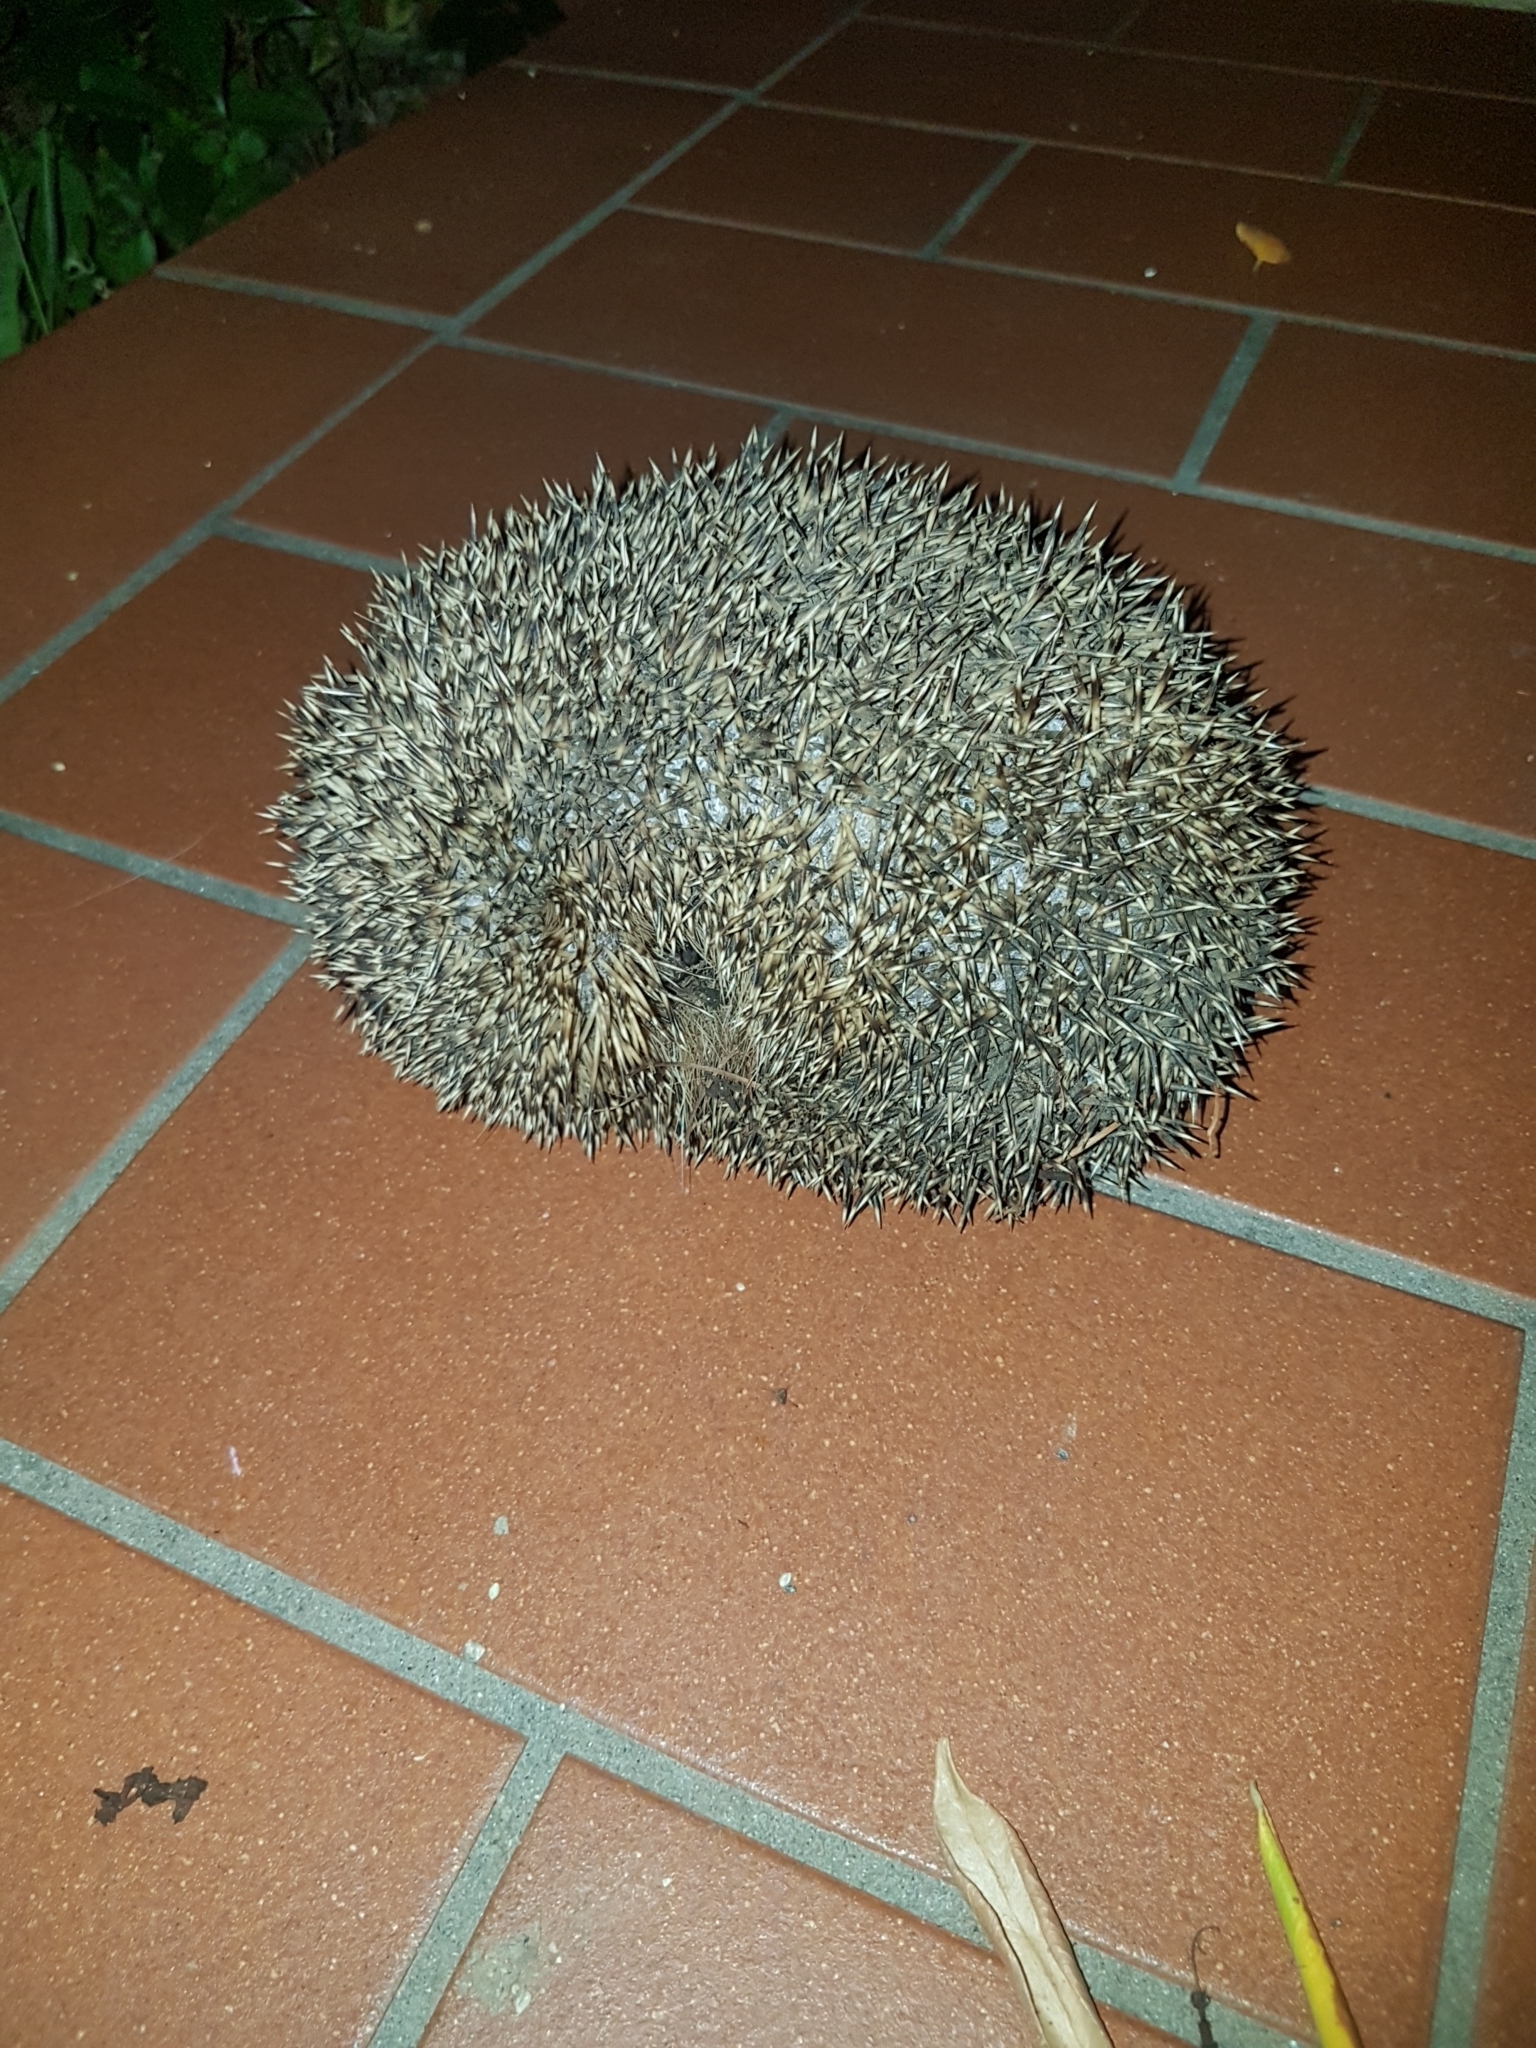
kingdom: Animalia
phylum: Chordata
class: Mammalia
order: Erinaceomorpha
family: Erinaceidae
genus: Erinaceus
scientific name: Erinaceus europaeus
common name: West european hedgehog
